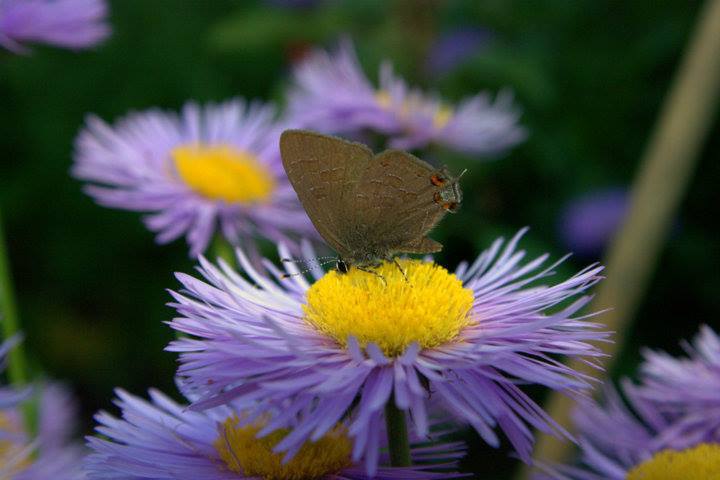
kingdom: Animalia
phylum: Arthropoda
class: Insecta
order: Lepidoptera
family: Lycaenidae
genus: Satyrium
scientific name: Satyrium liparops
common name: Striped hairstreak
